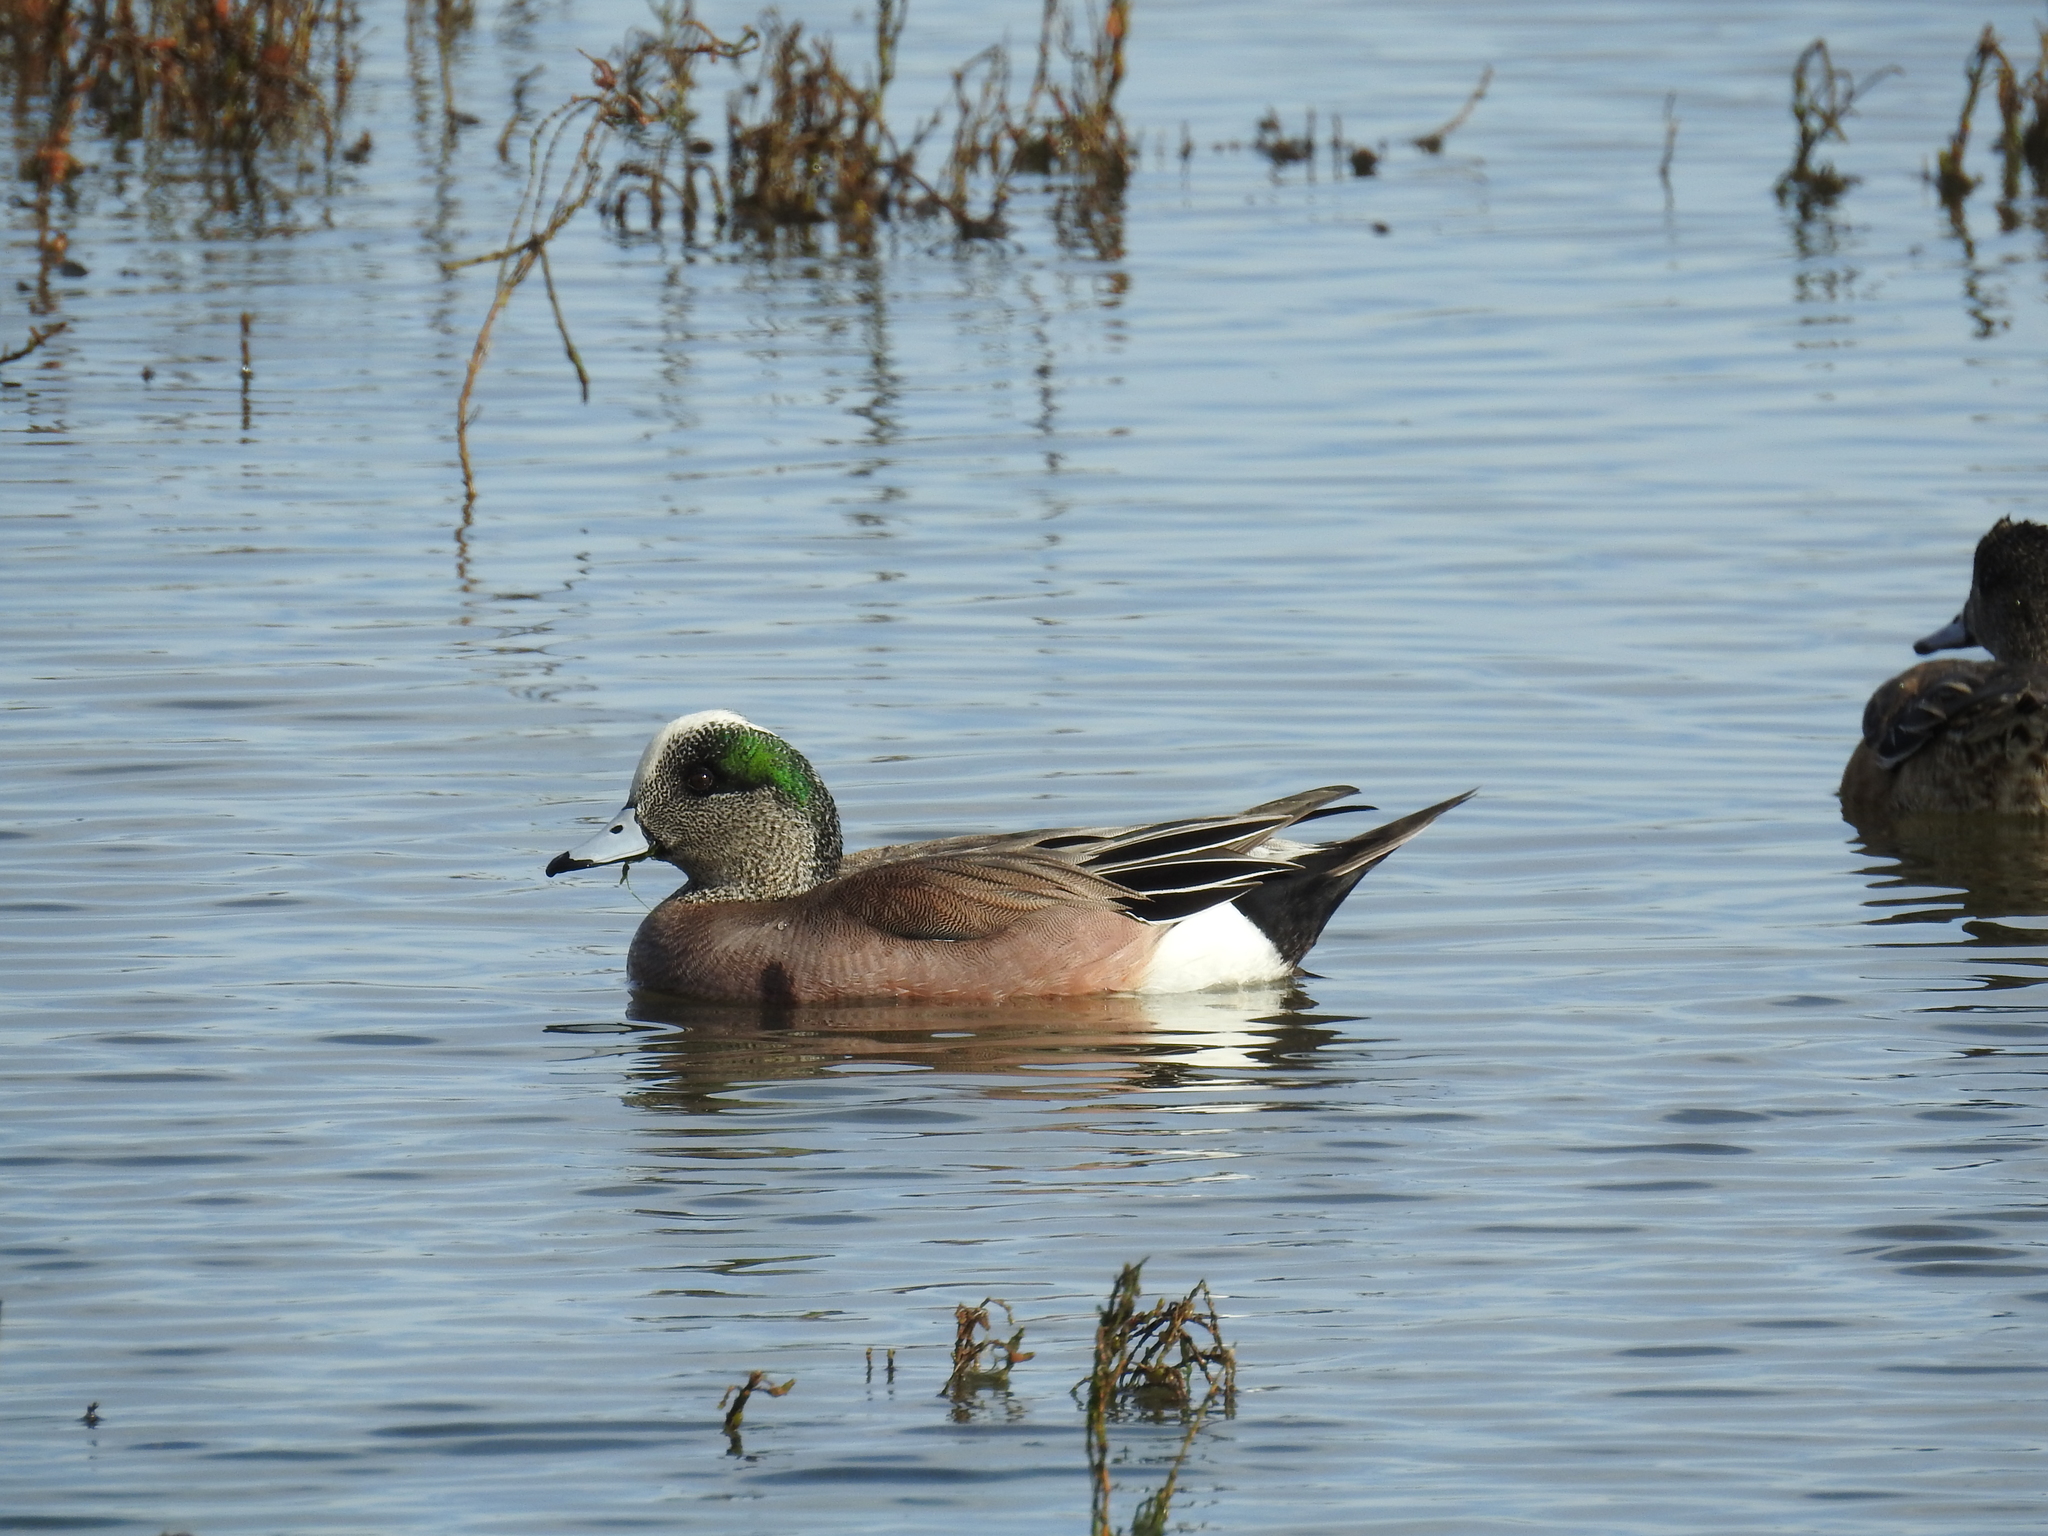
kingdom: Animalia
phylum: Chordata
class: Aves
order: Anseriformes
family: Anatidae
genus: Mareca
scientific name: Mareca americana
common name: American wigeon
